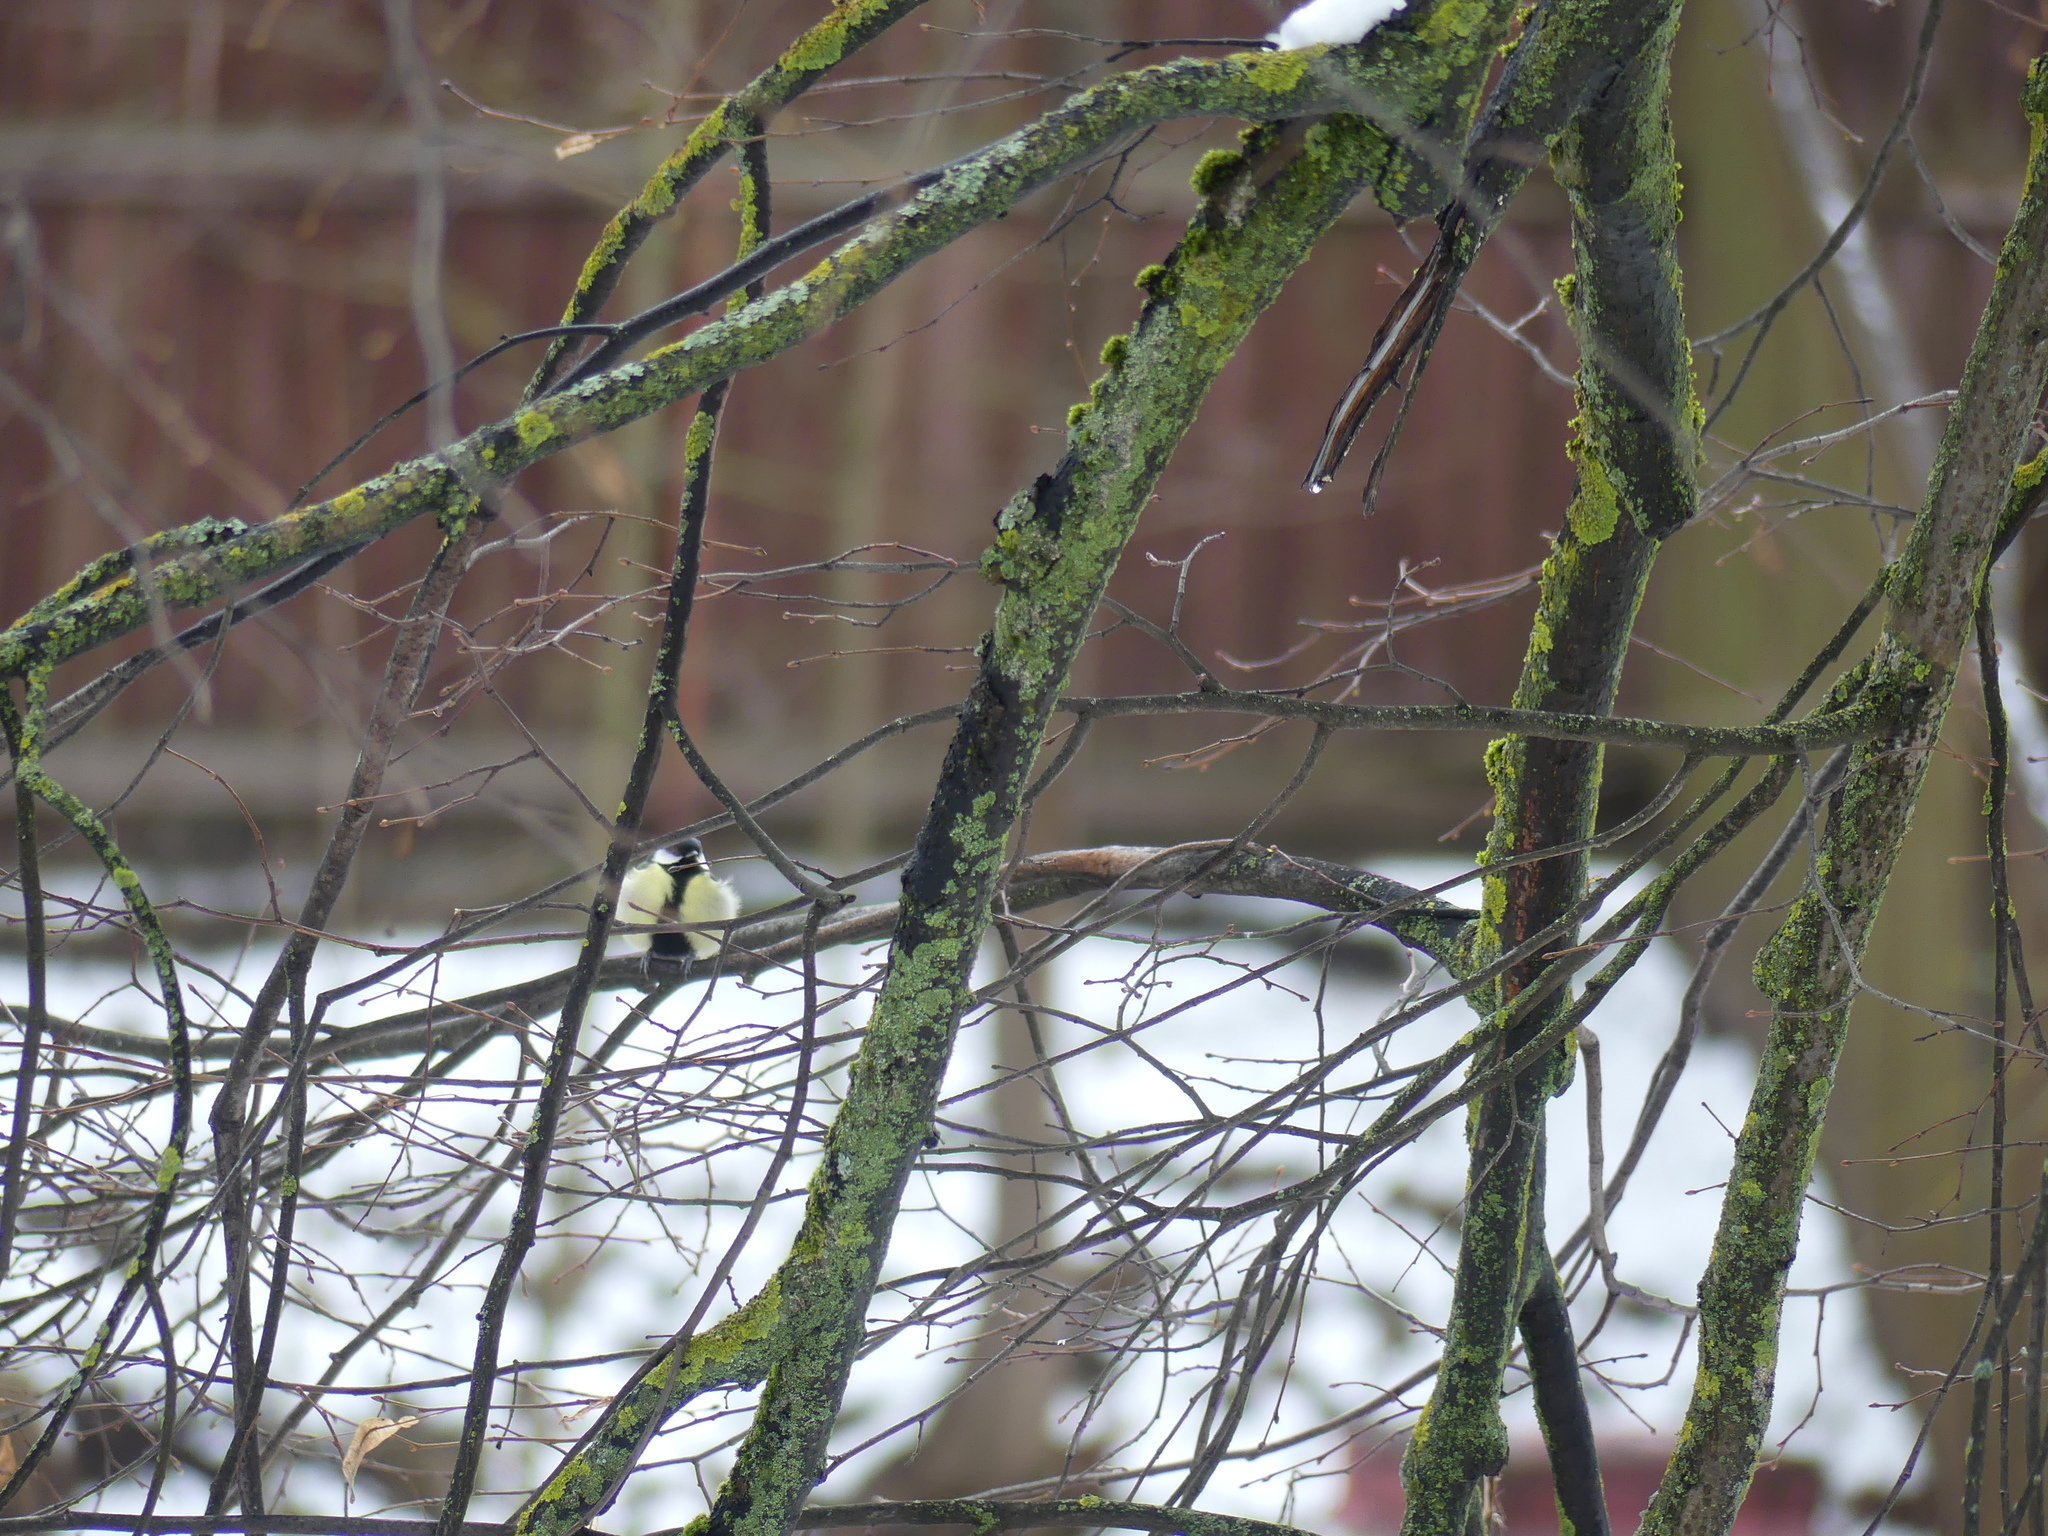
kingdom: Animalia
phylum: Chordata
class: Aves
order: Passeriformes
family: Paridae
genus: Parus
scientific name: Parus major
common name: Great tit
